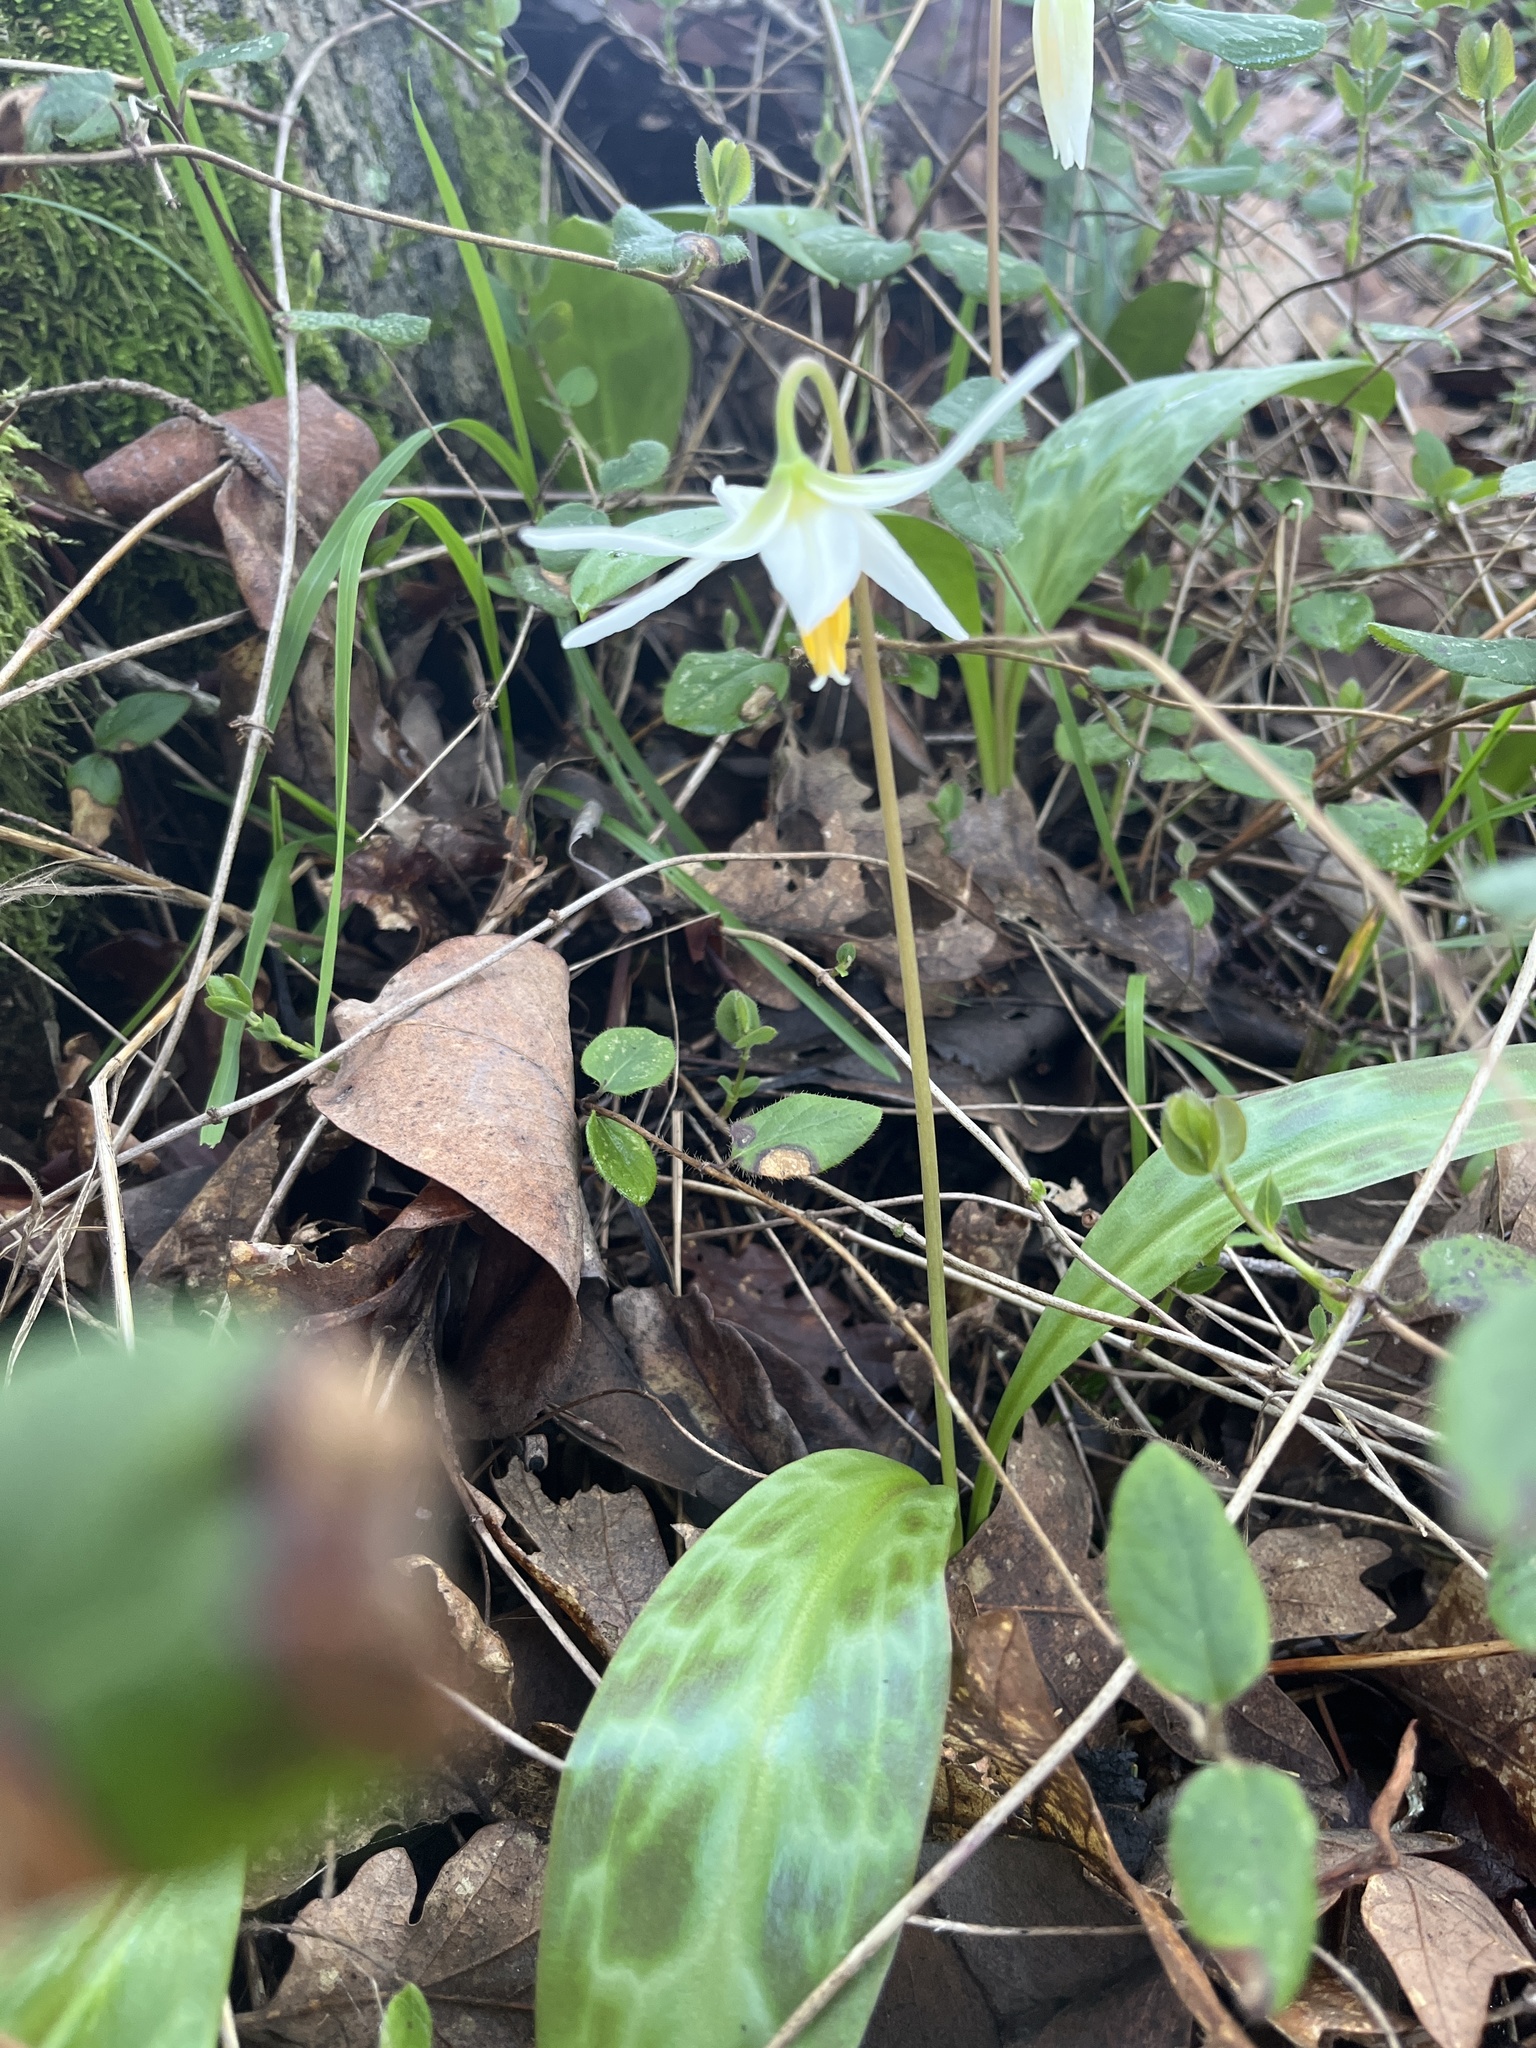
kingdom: Plantae
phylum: Tracheophyta
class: Liliopsida
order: Liliales
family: Liliaceae
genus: Erythronium
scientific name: Erythronium oregonum
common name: Giant adder's-tongue
